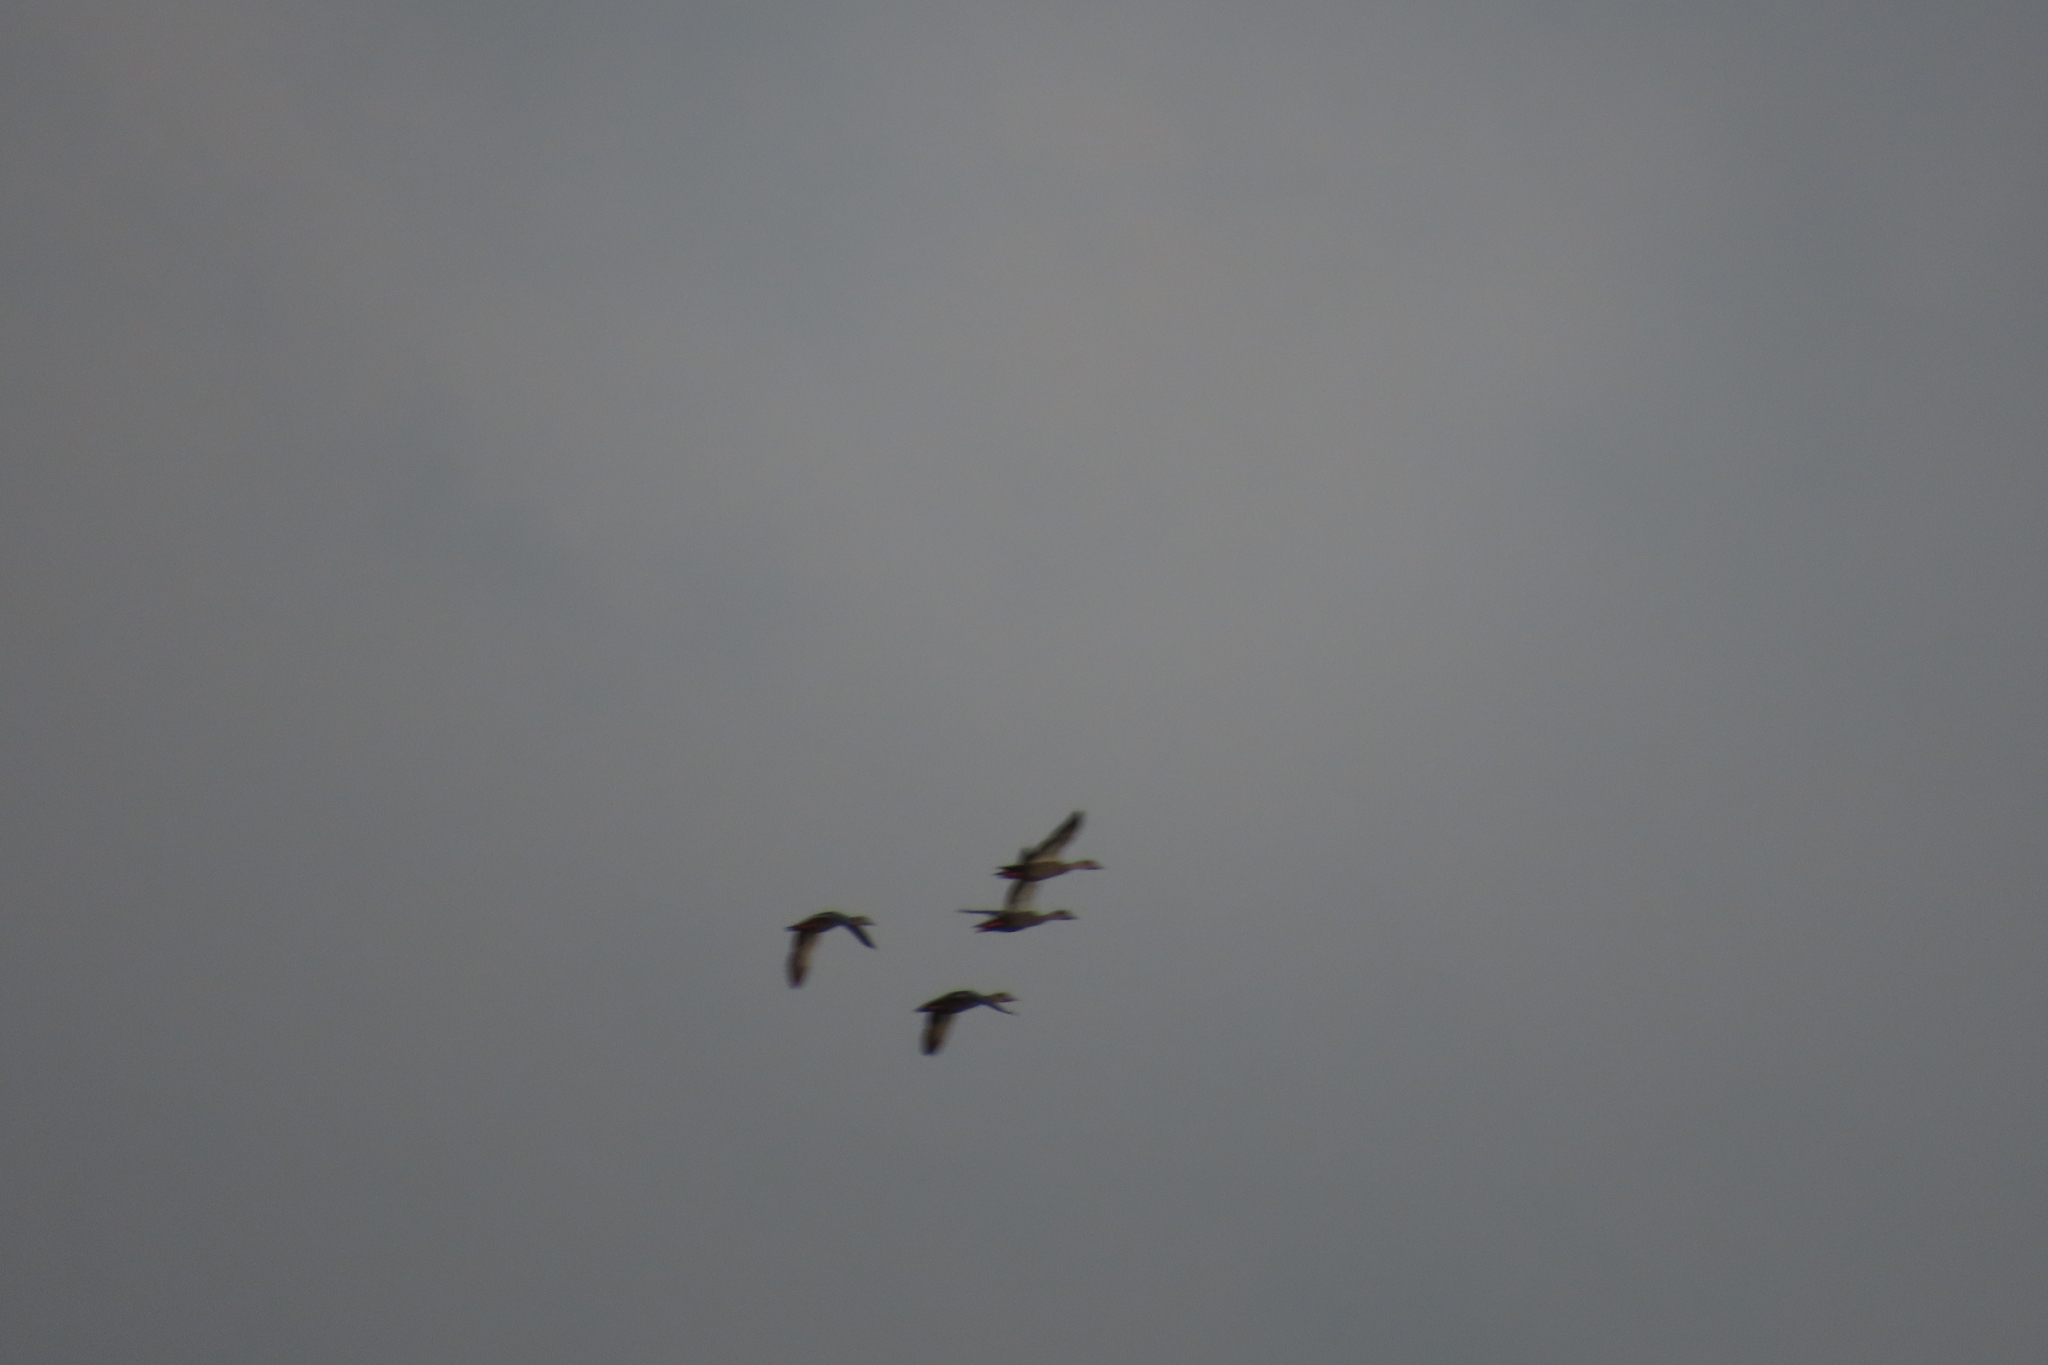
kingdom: Animalia
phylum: Chordata
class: Aves
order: Anseriformes
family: Anatidae
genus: Anas
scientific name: Anas poecilorhyncha
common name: Indian spot-billed duck
